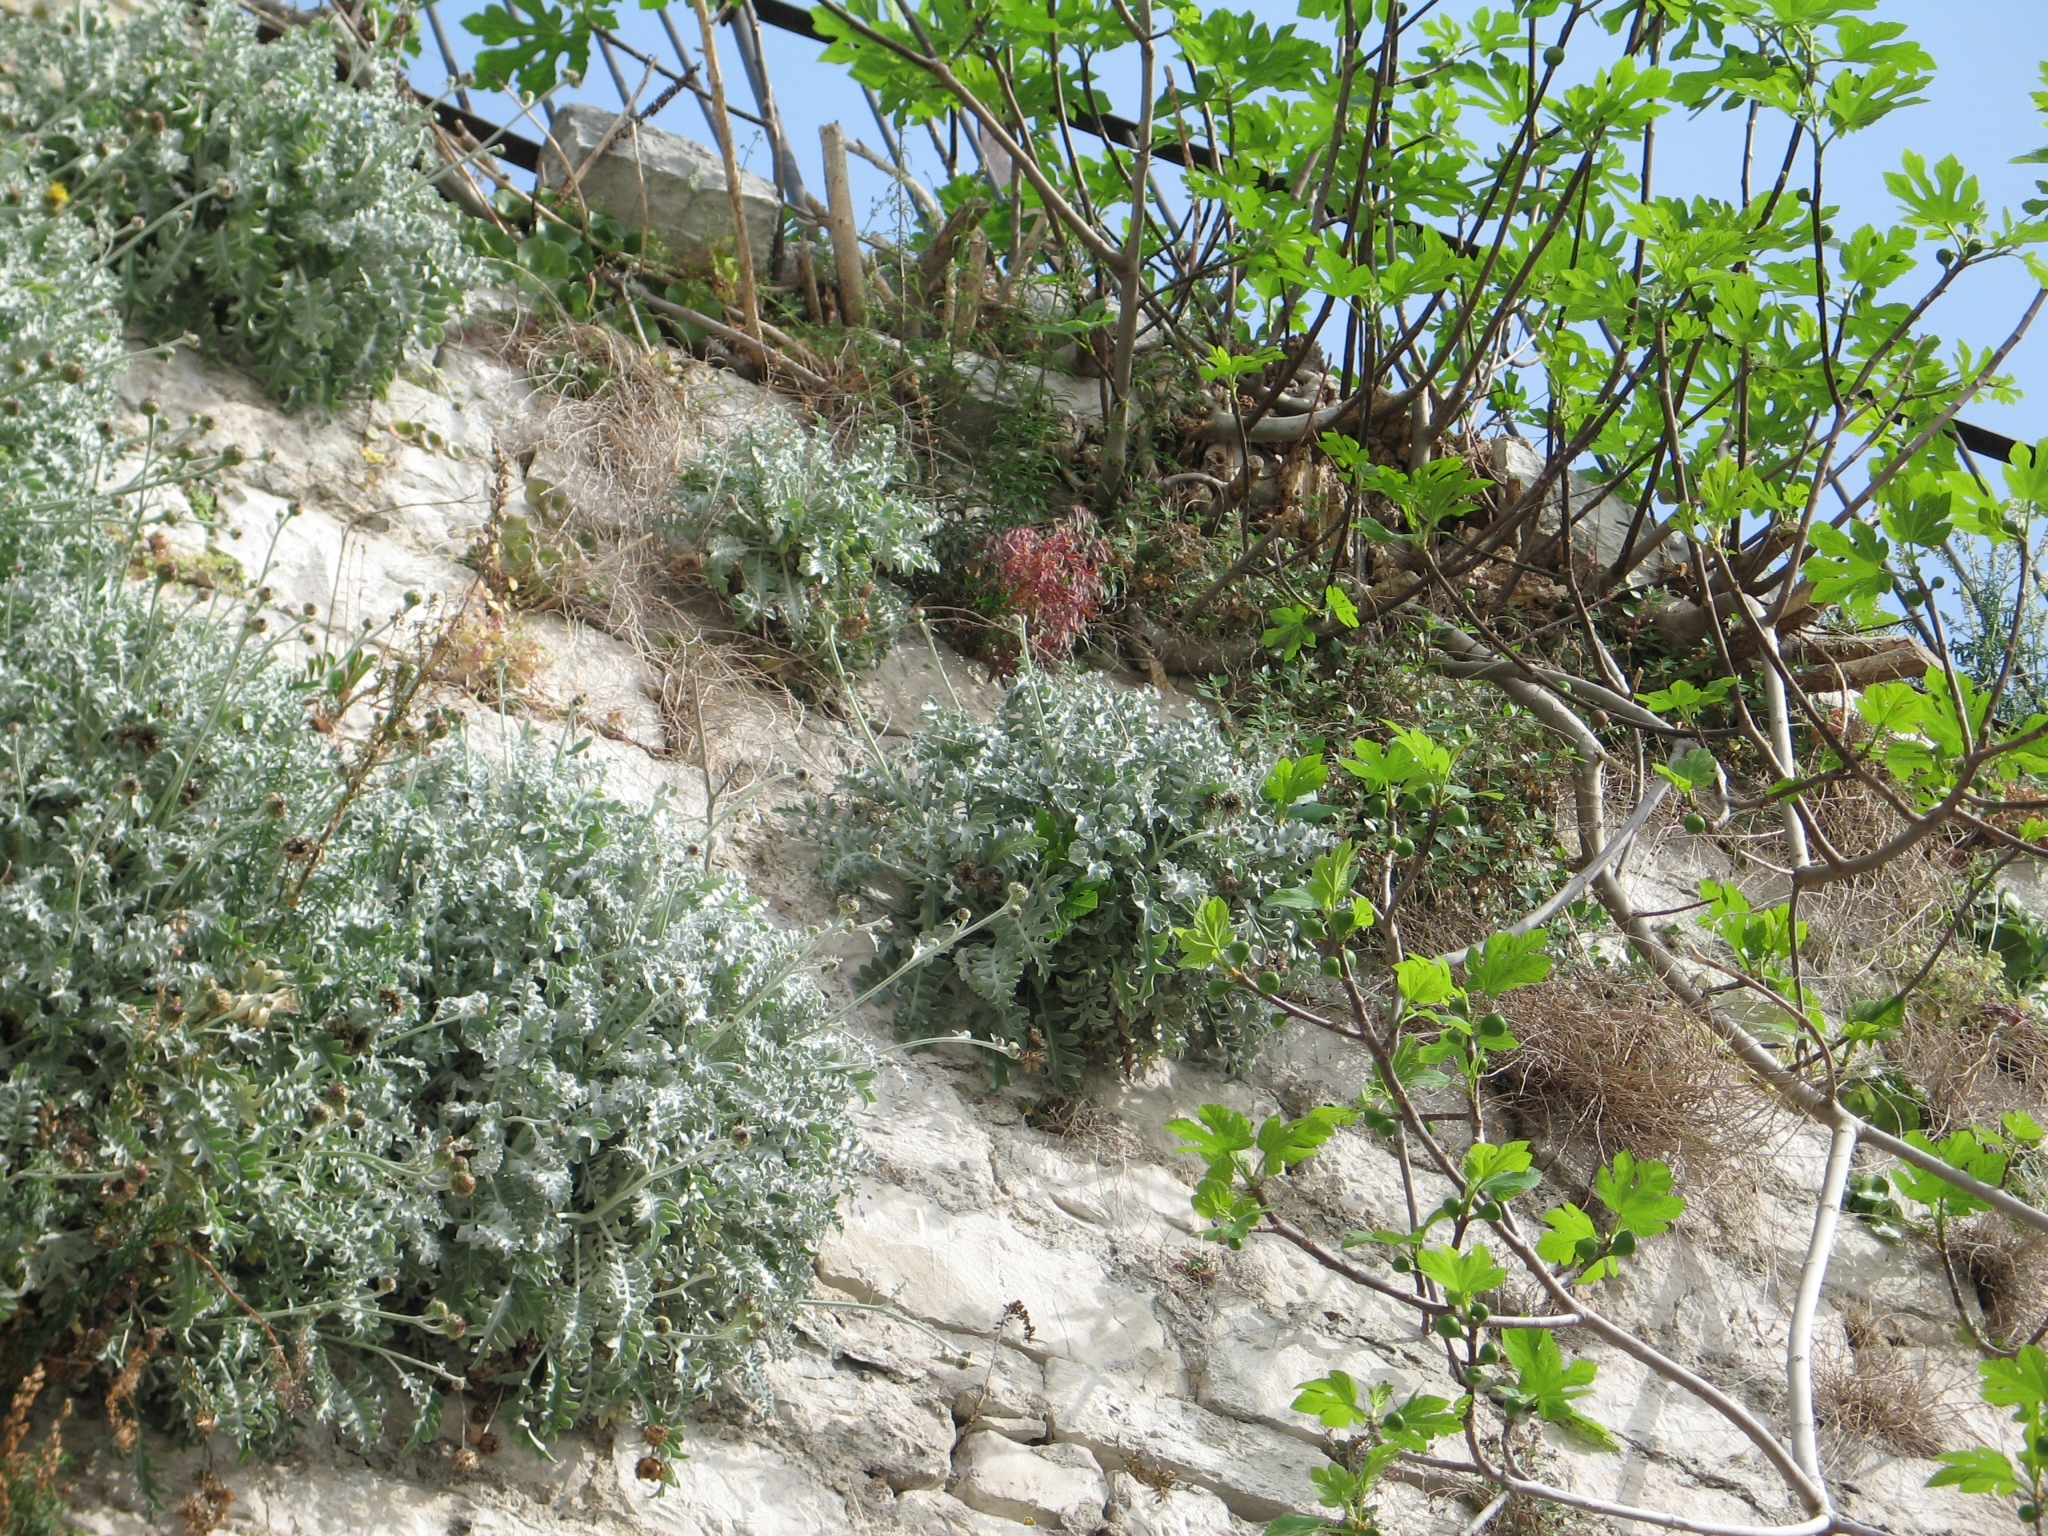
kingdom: Plantae
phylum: Tracheophyta
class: Magnoliopsida
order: Asterales
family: Asteraceae
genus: Centaurea
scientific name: Centaurea ragusina
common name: Dusty-miller
